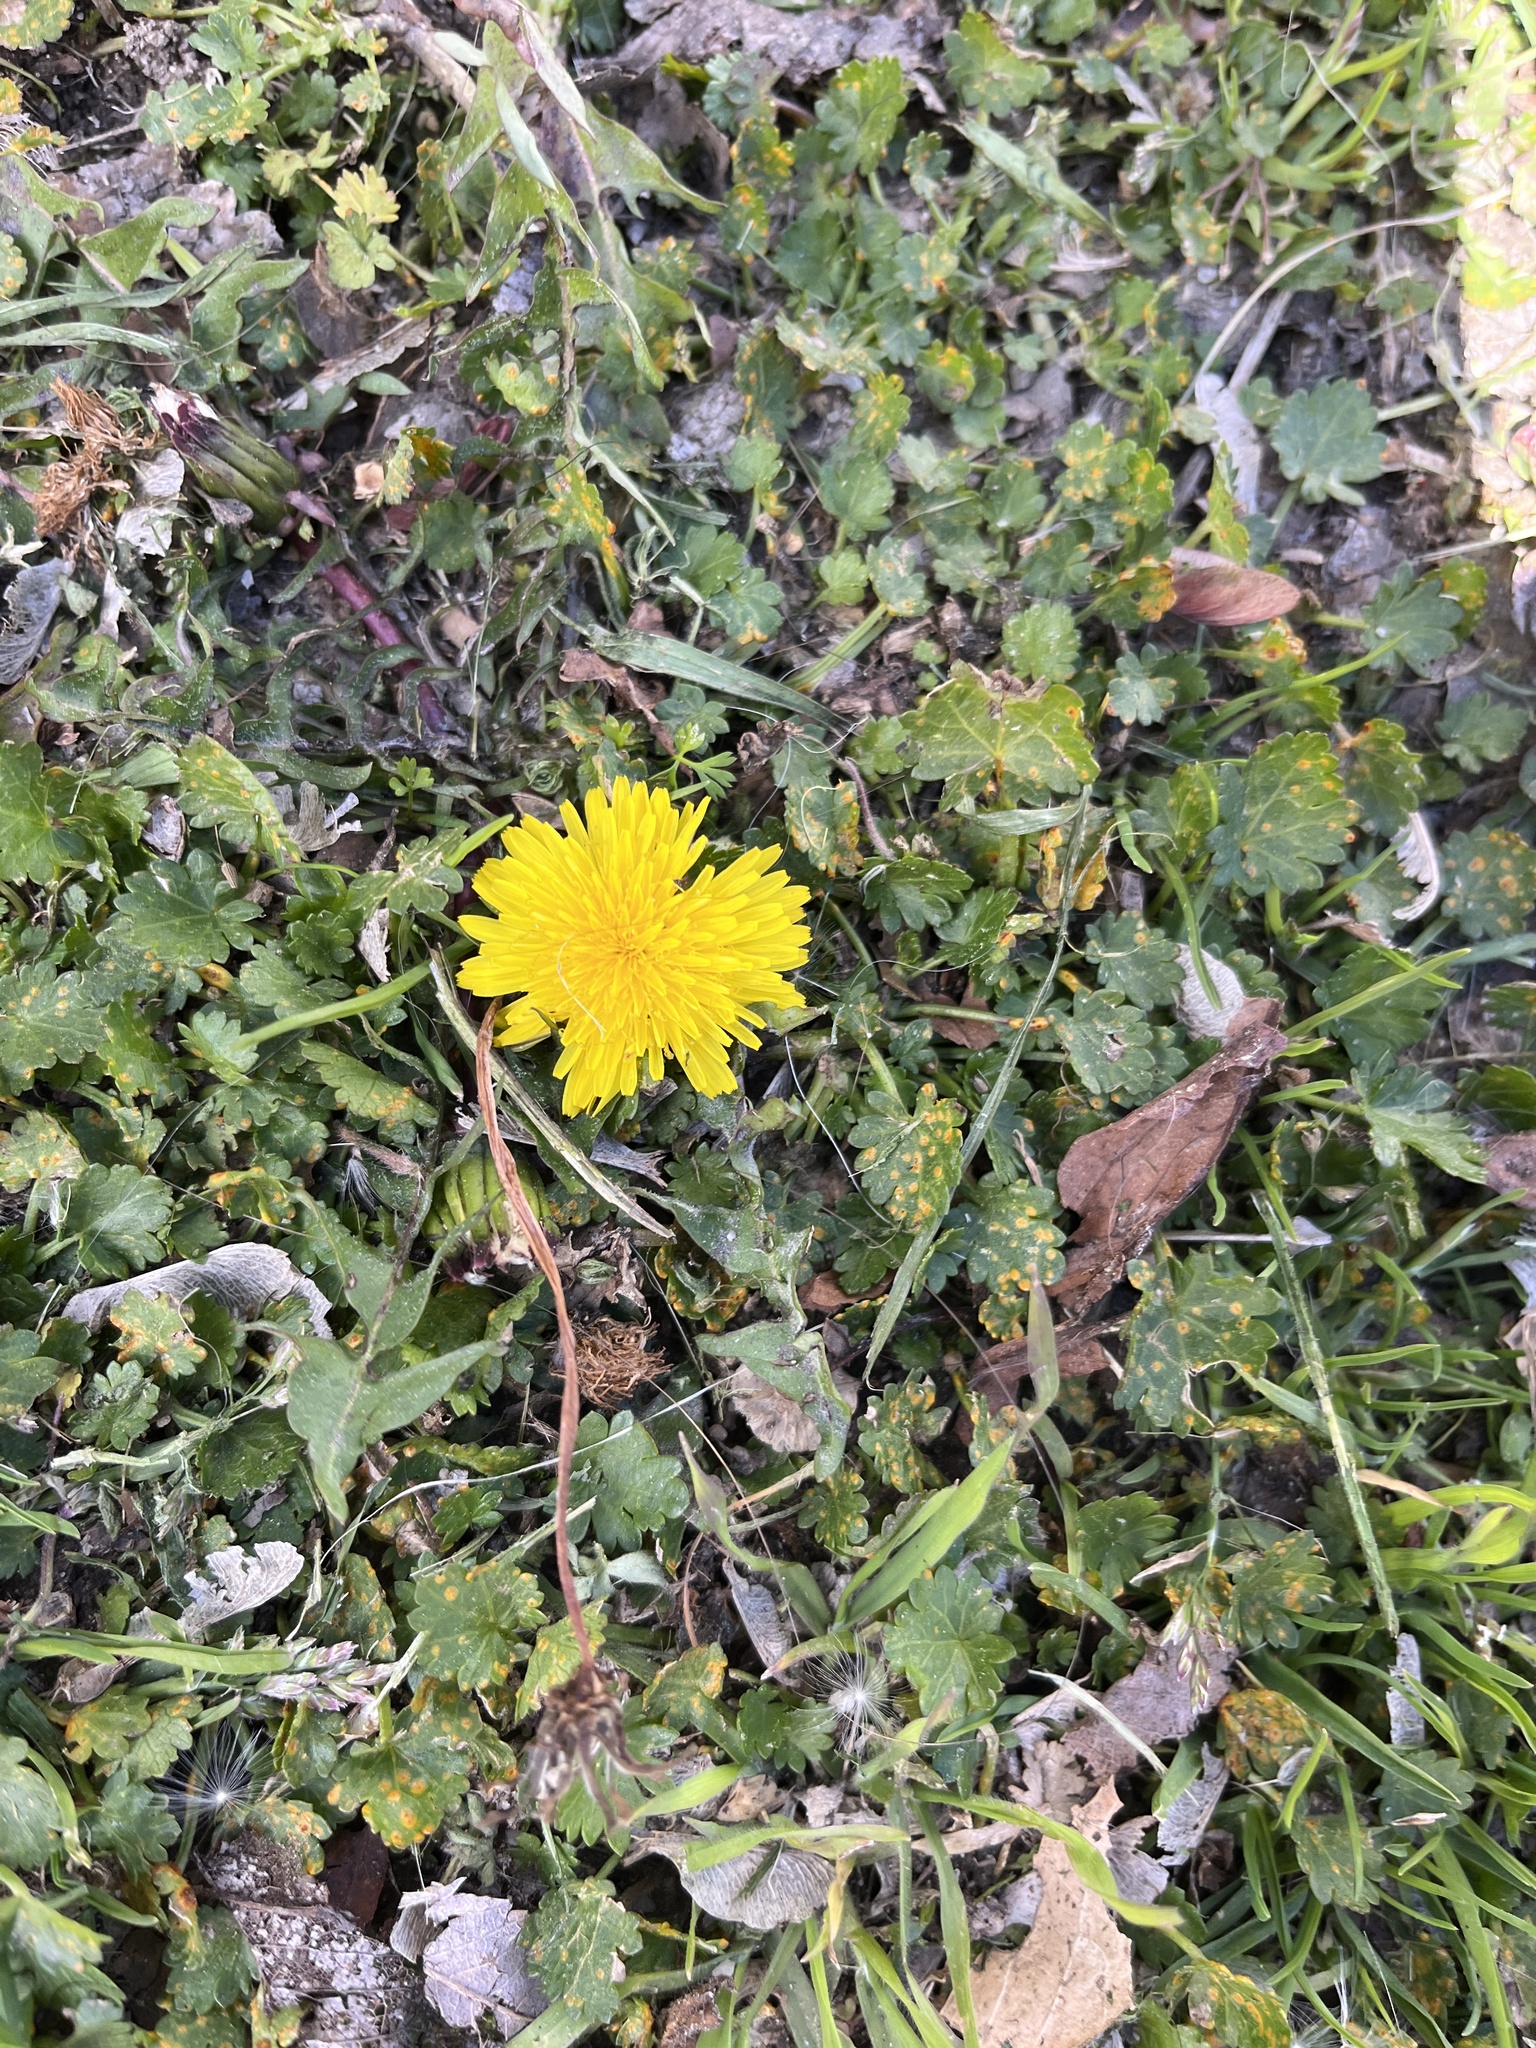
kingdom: Plantae
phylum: Tracheophyta
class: Magnoliopsida
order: Asterales
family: Asteraceae
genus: Taraxacum
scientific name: Taraxacum
